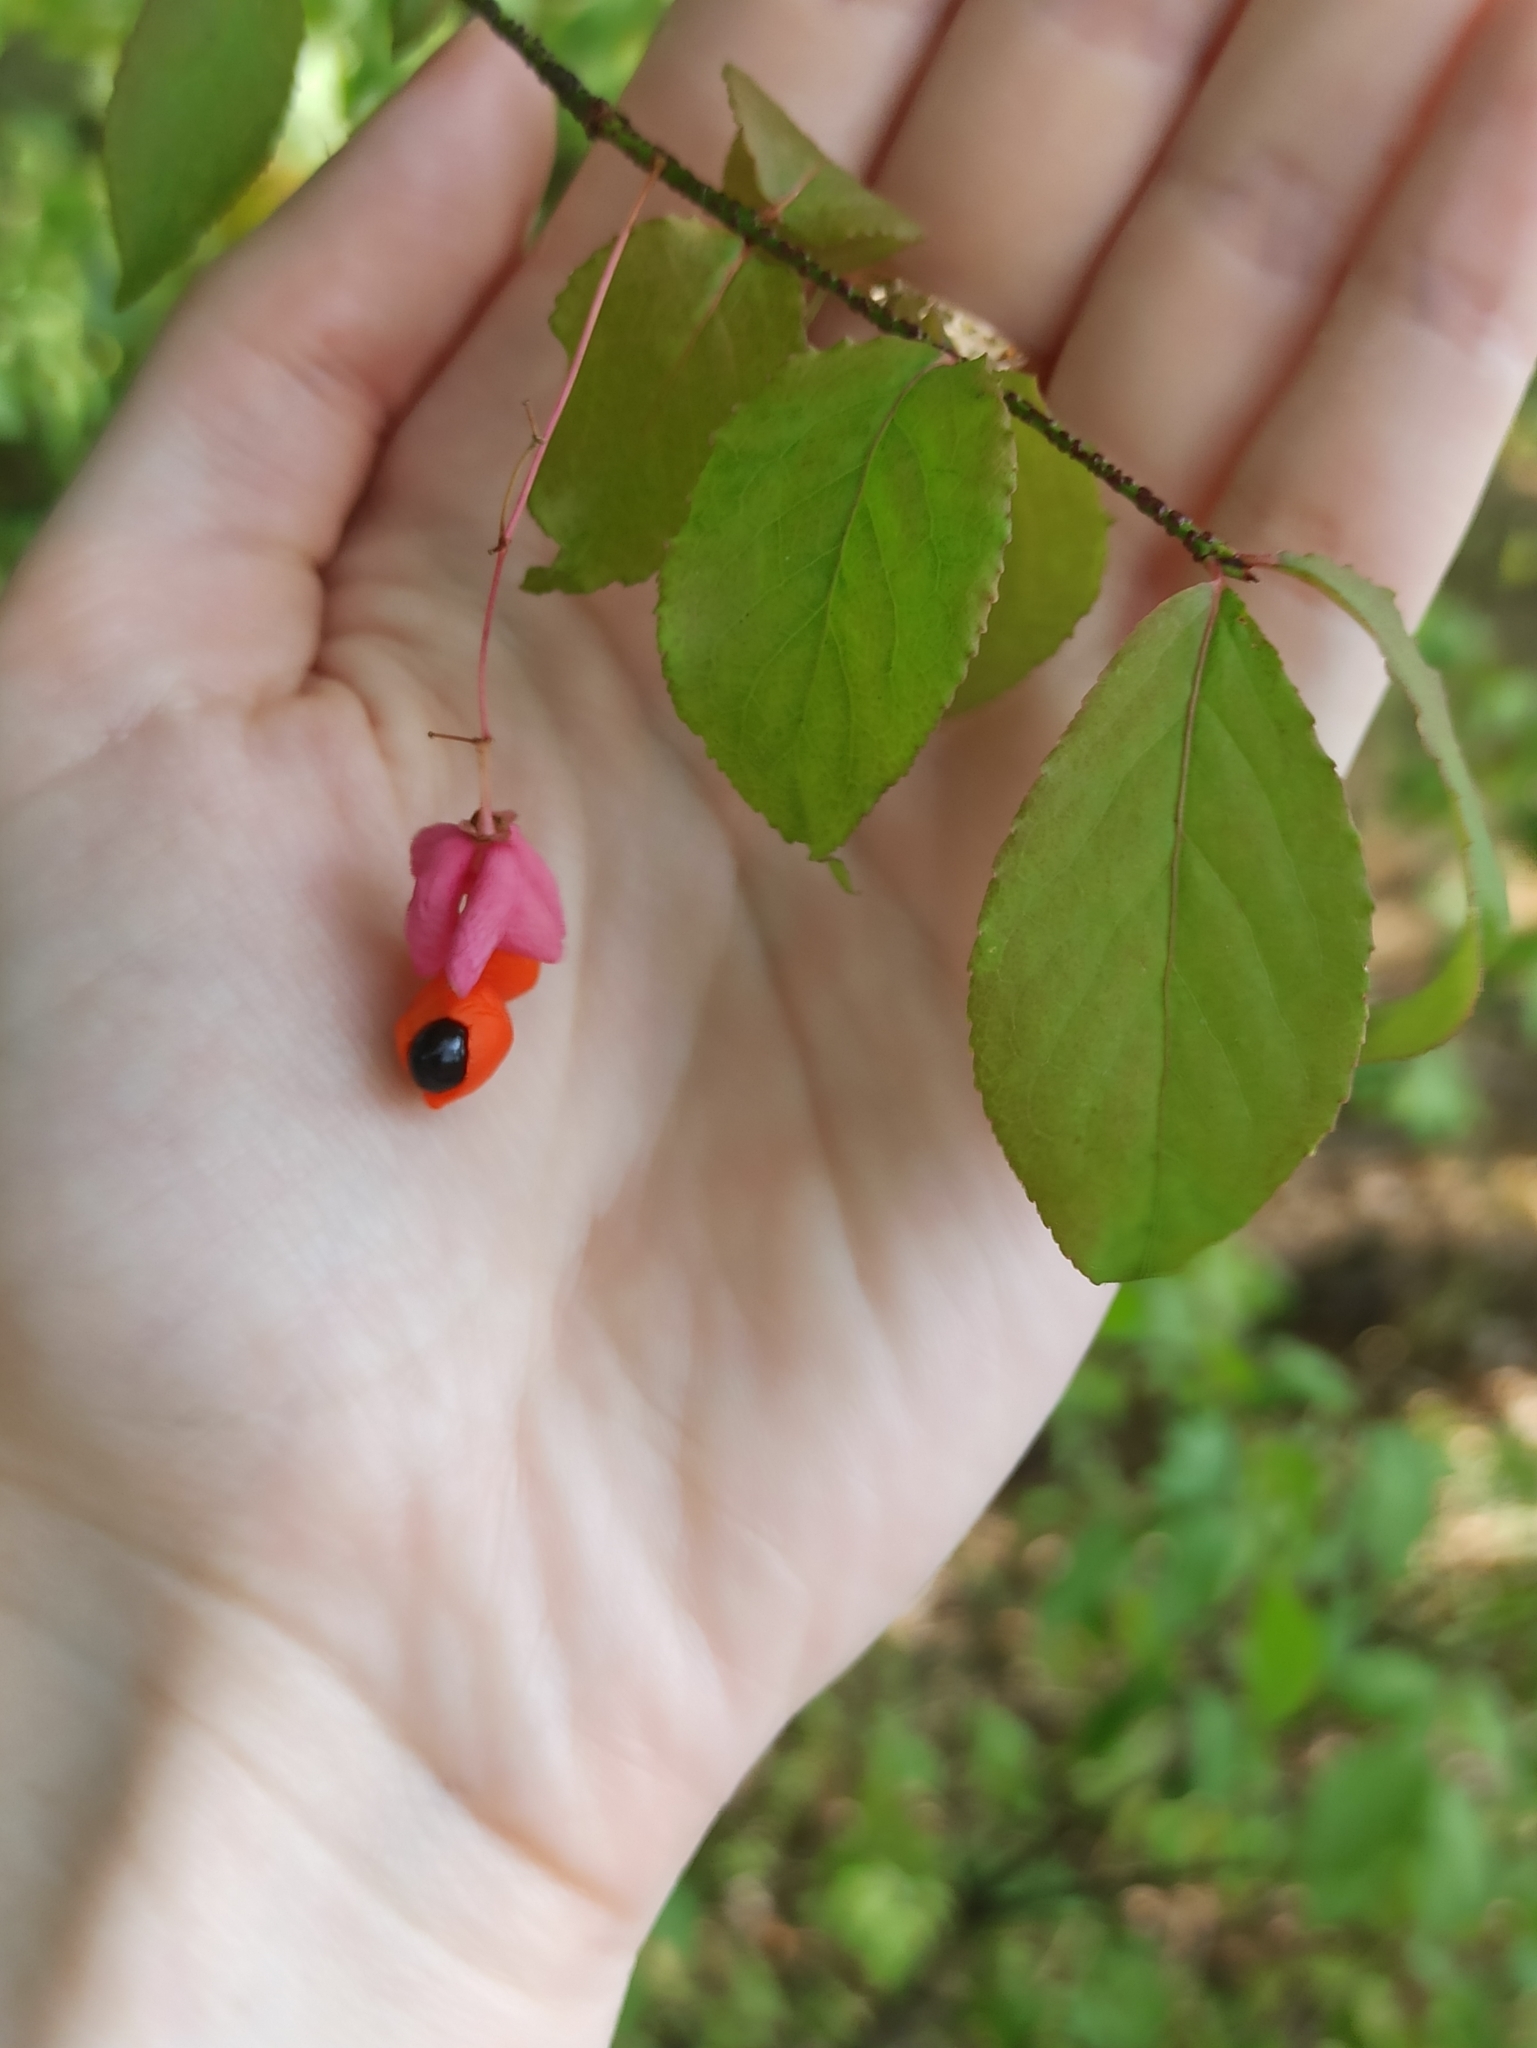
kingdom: Plantae
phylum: Tracheophyta
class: Magnoliopsida
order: Celastrales
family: Celastraceae
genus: Euonymus
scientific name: Euonymus verrucosus
